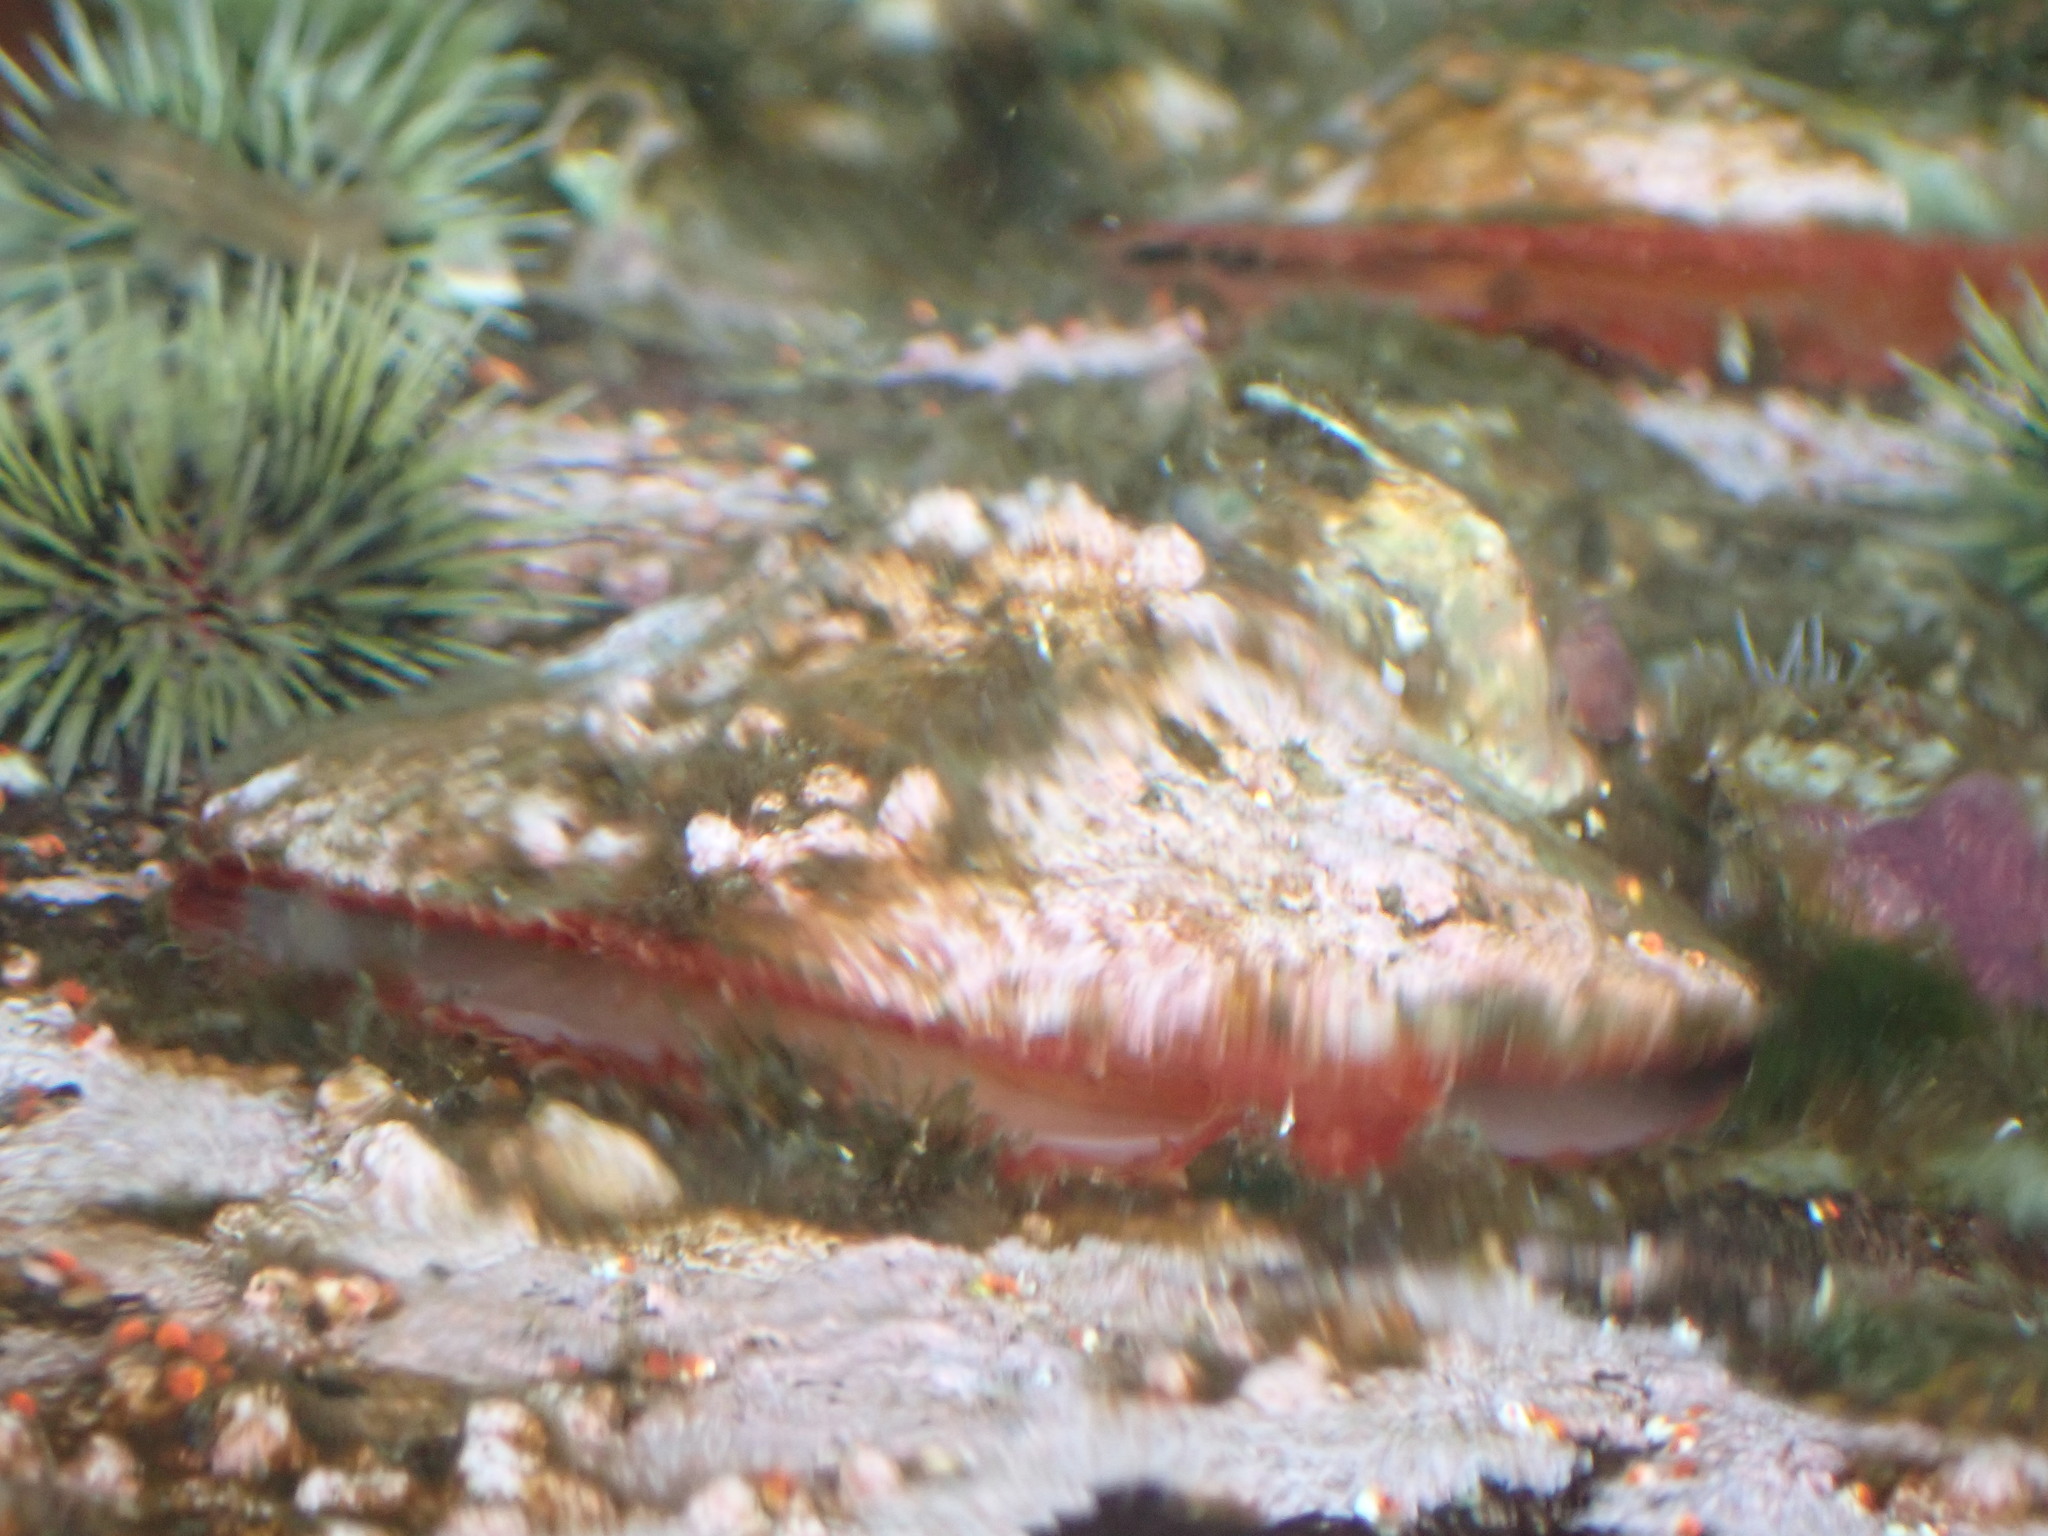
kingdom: Animalia
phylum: Mollusca
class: Bivalvia
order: Pectinida
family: Anomiidae
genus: Pododesmus
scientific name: Pododesmus macrochisma
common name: Alaska jingle
